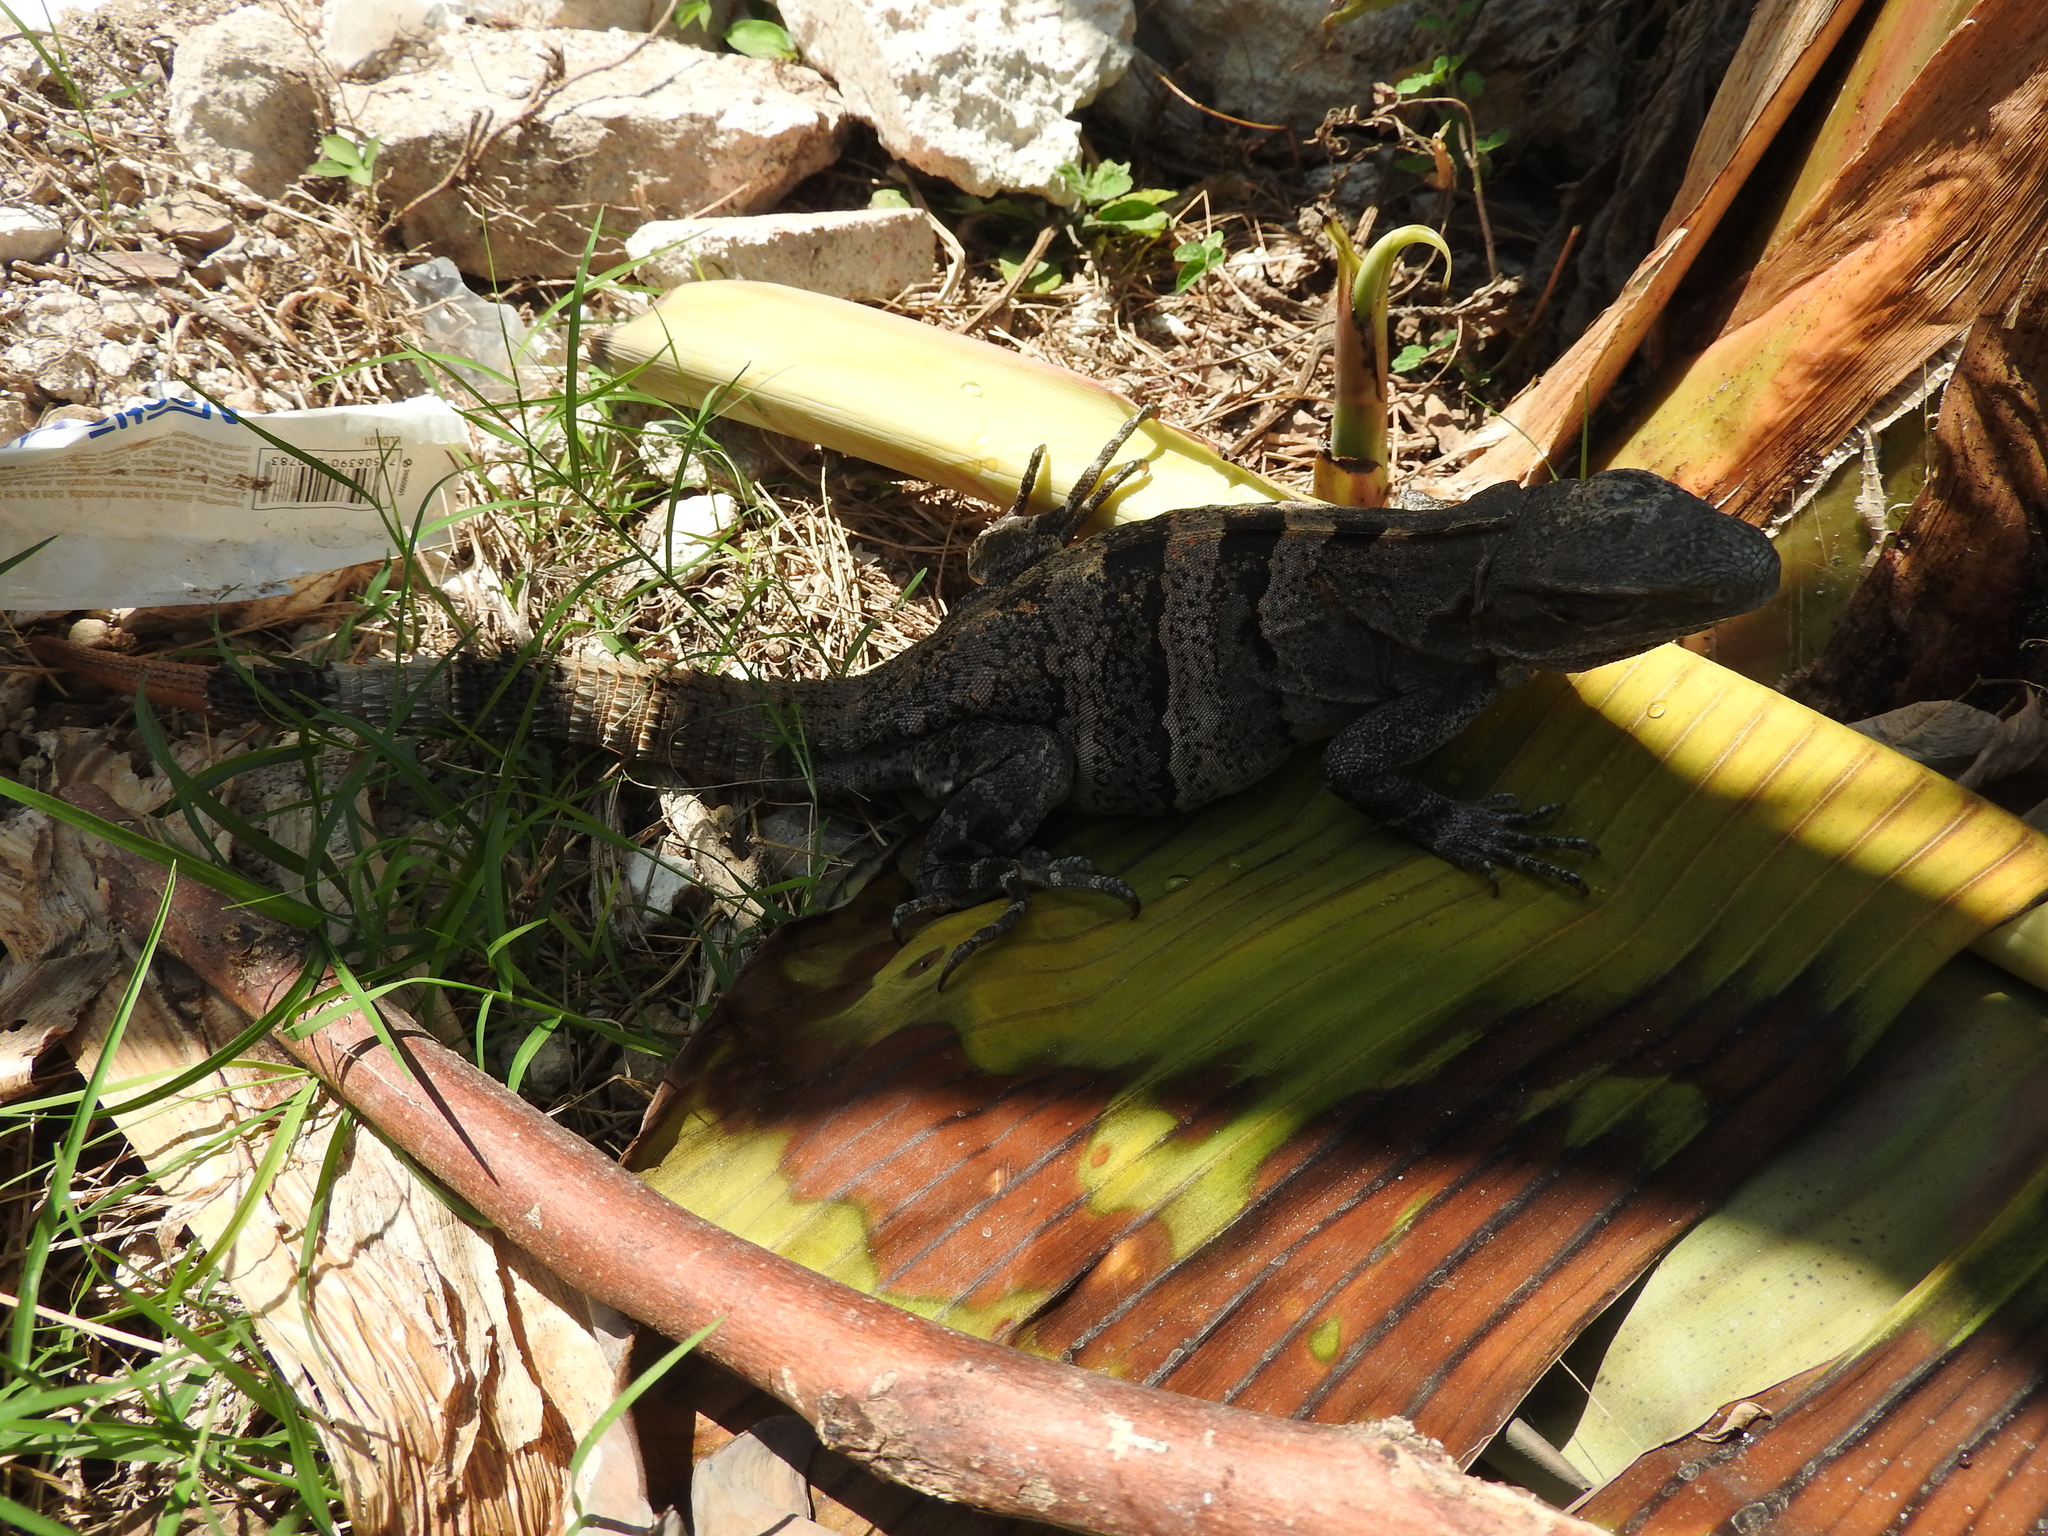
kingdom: Animalia
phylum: Chordata
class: Squamata
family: Iguanidae
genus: Ctenosaura
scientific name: Ctenosaura similis
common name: Black spiny-tailed iguana
